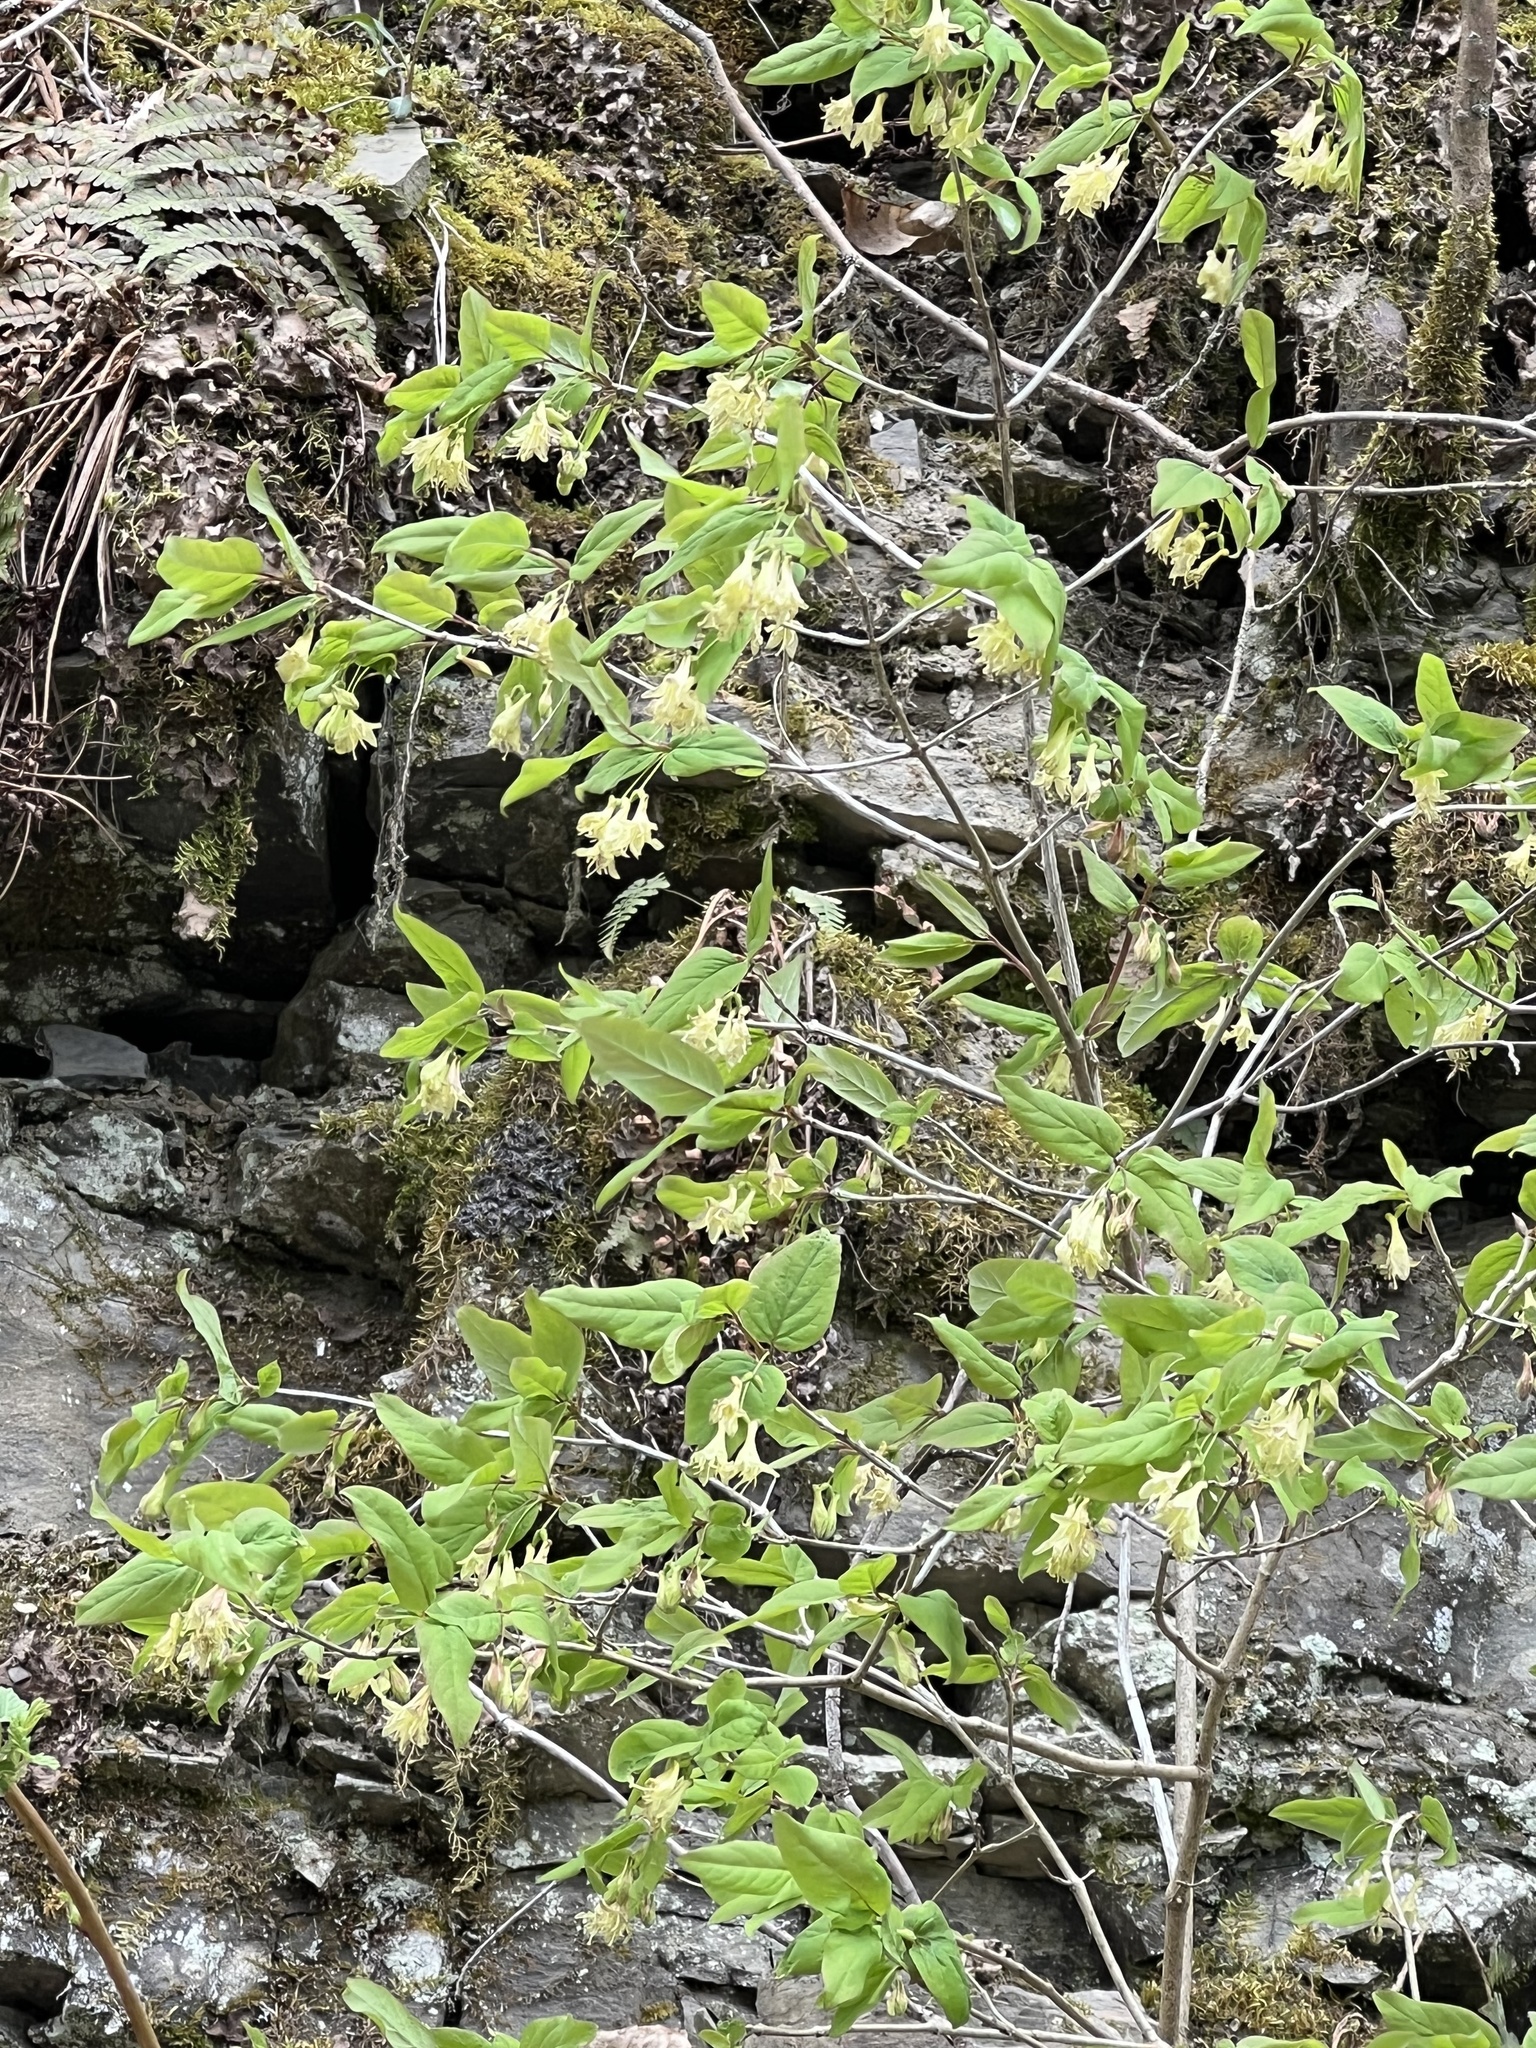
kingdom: Plantae
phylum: Tracheophyta
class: Magnoliopsida
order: Dipsacales
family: Caprifoliaceae
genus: Lonicera
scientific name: Lonicera canadensis
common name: American fly-honeysuckle
